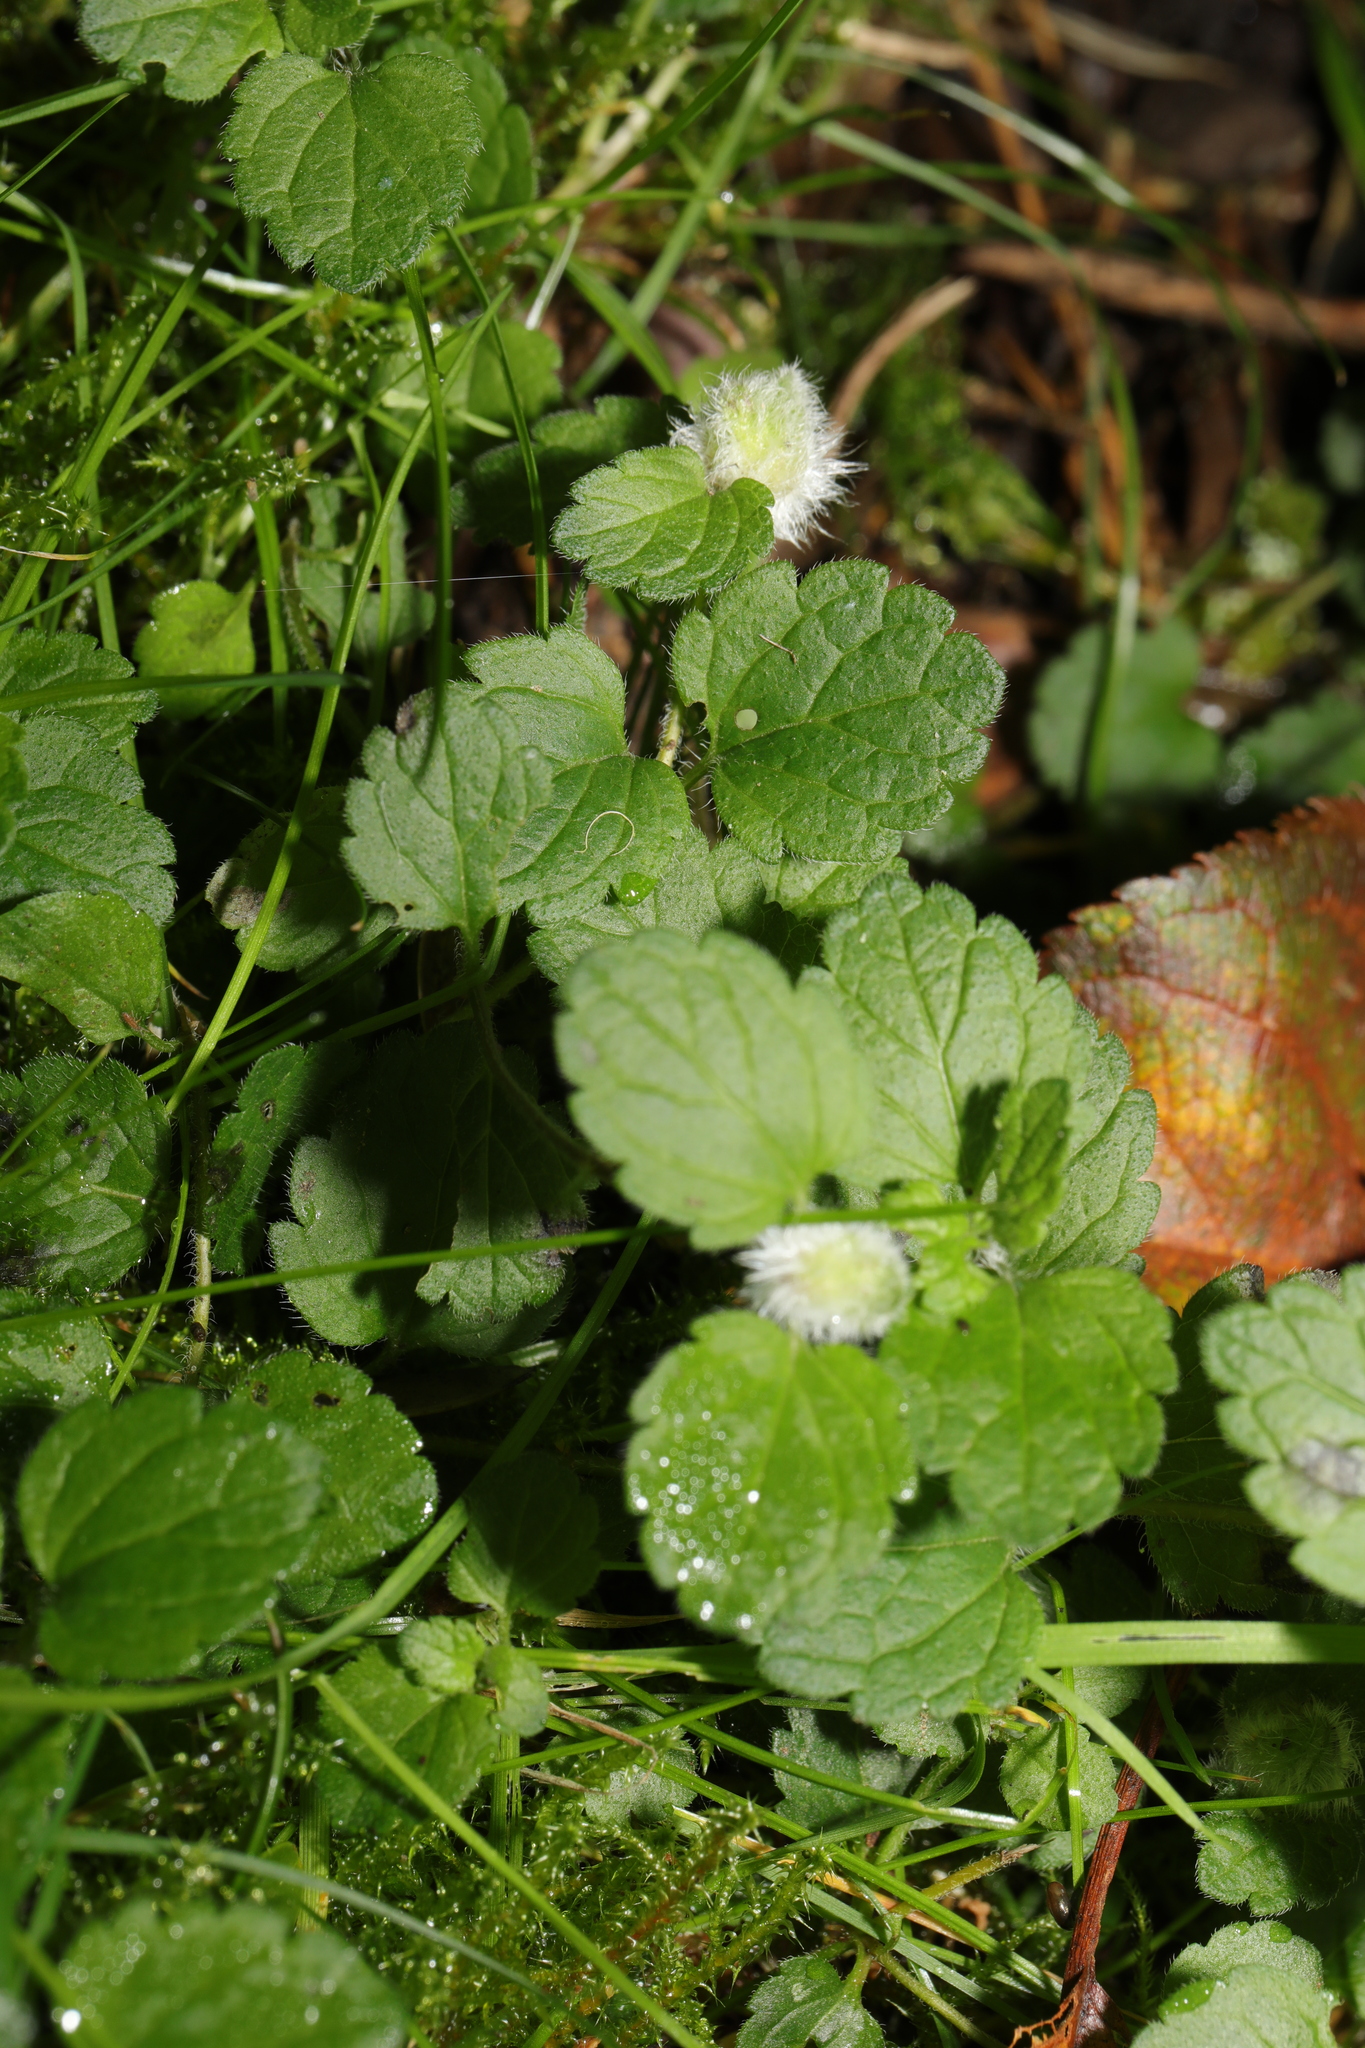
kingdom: Animalia
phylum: Arthropoda
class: Insecta
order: Diptera
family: Cecidomyiidae
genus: Jaapiella
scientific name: Jaapiella veronicae
